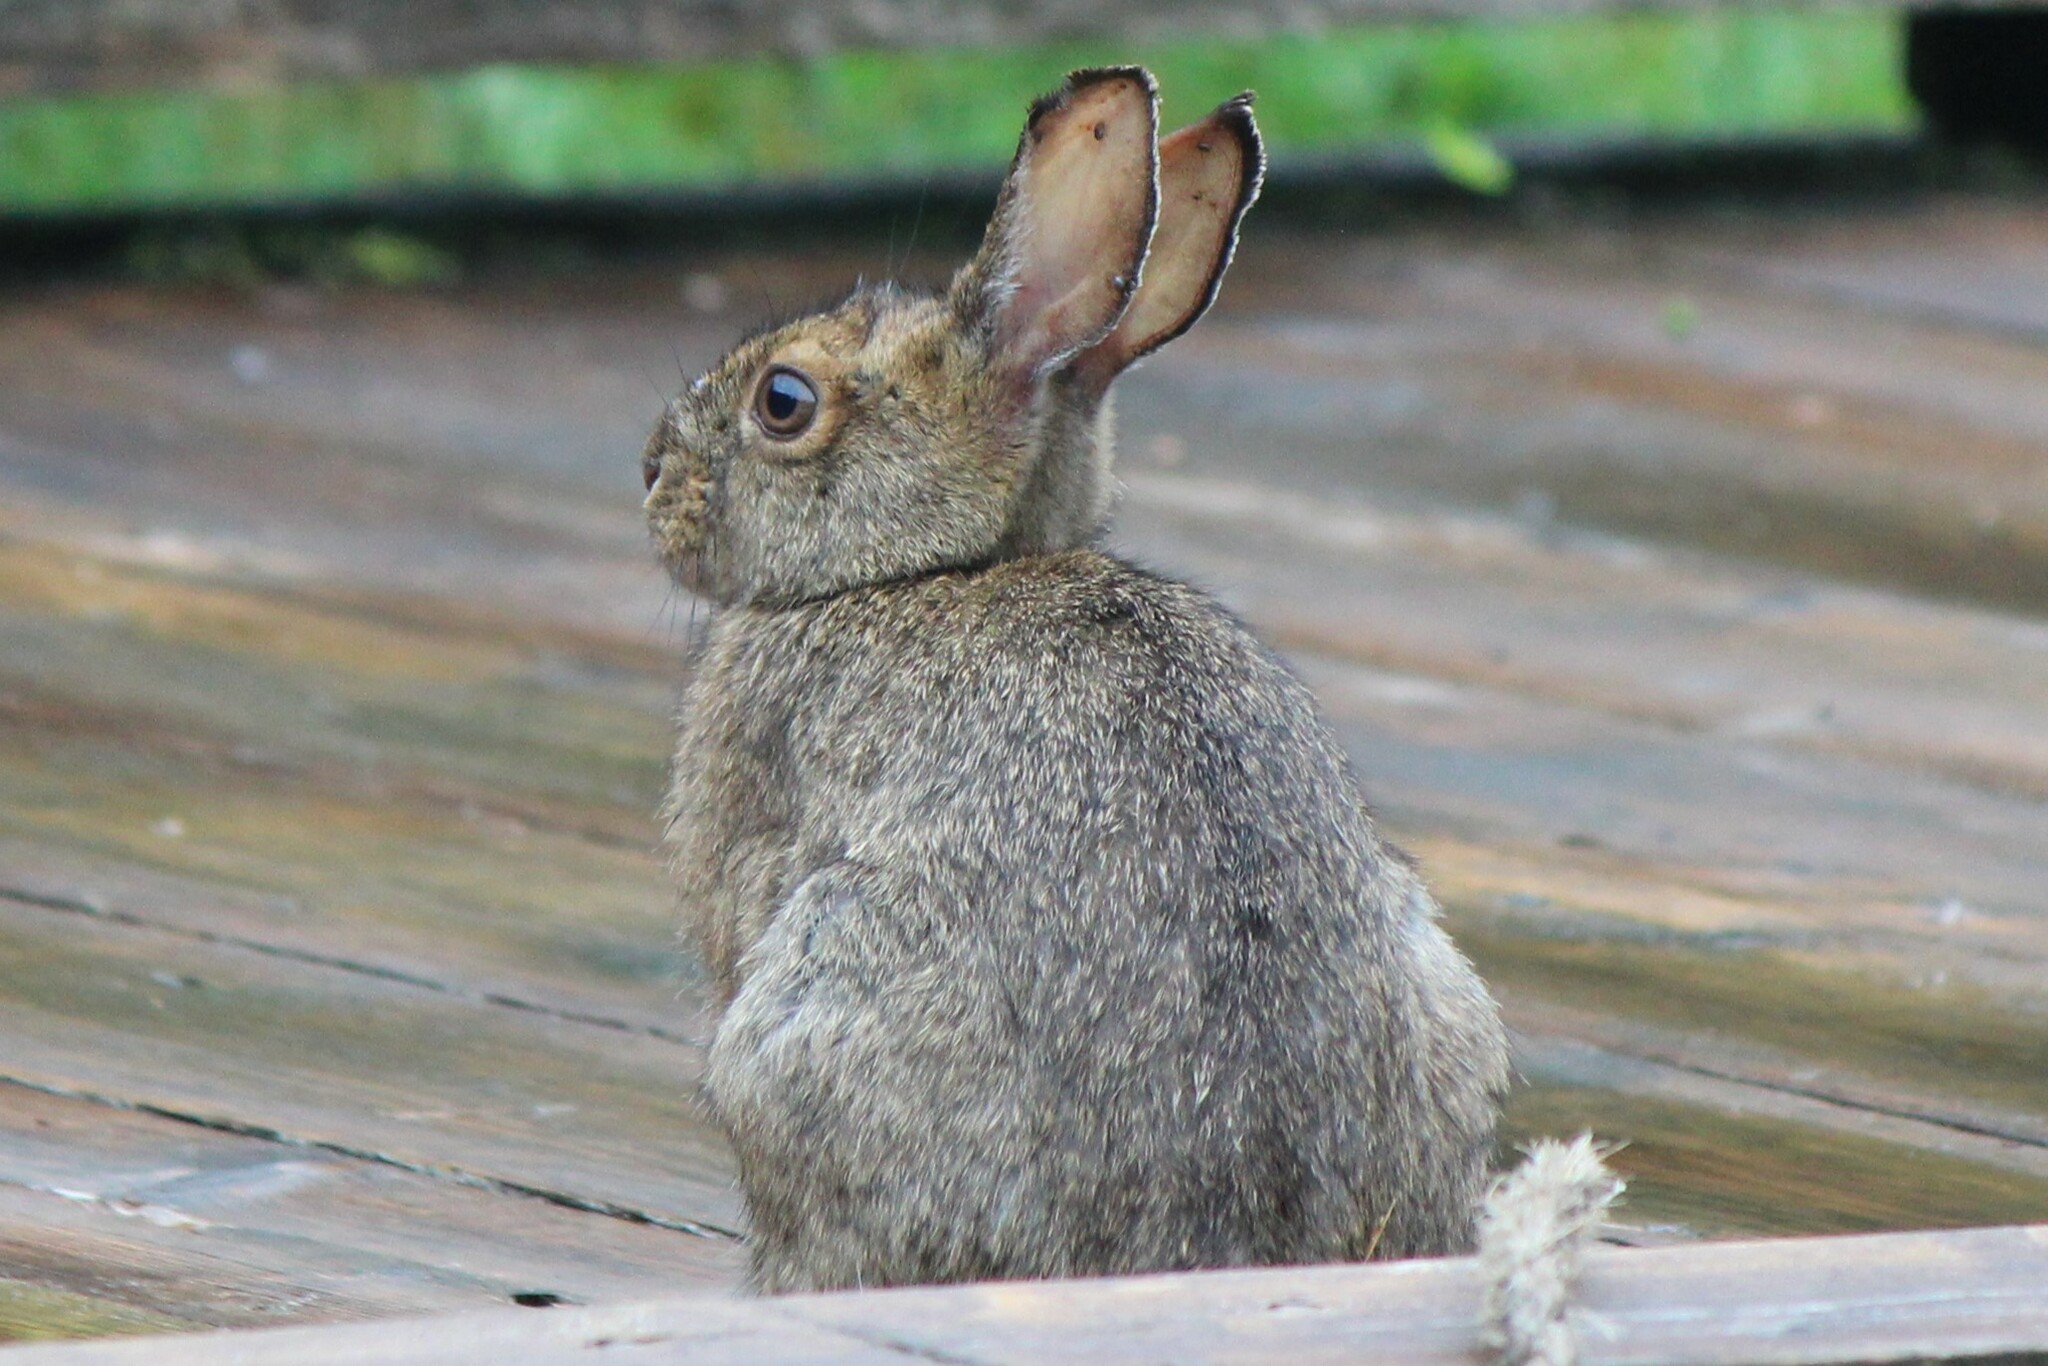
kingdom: Animalia
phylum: Chordata
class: Mammalia
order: Lagomorpha
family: Leporidae
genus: Lepus
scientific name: Lepus americanus
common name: Snowshoe hare
